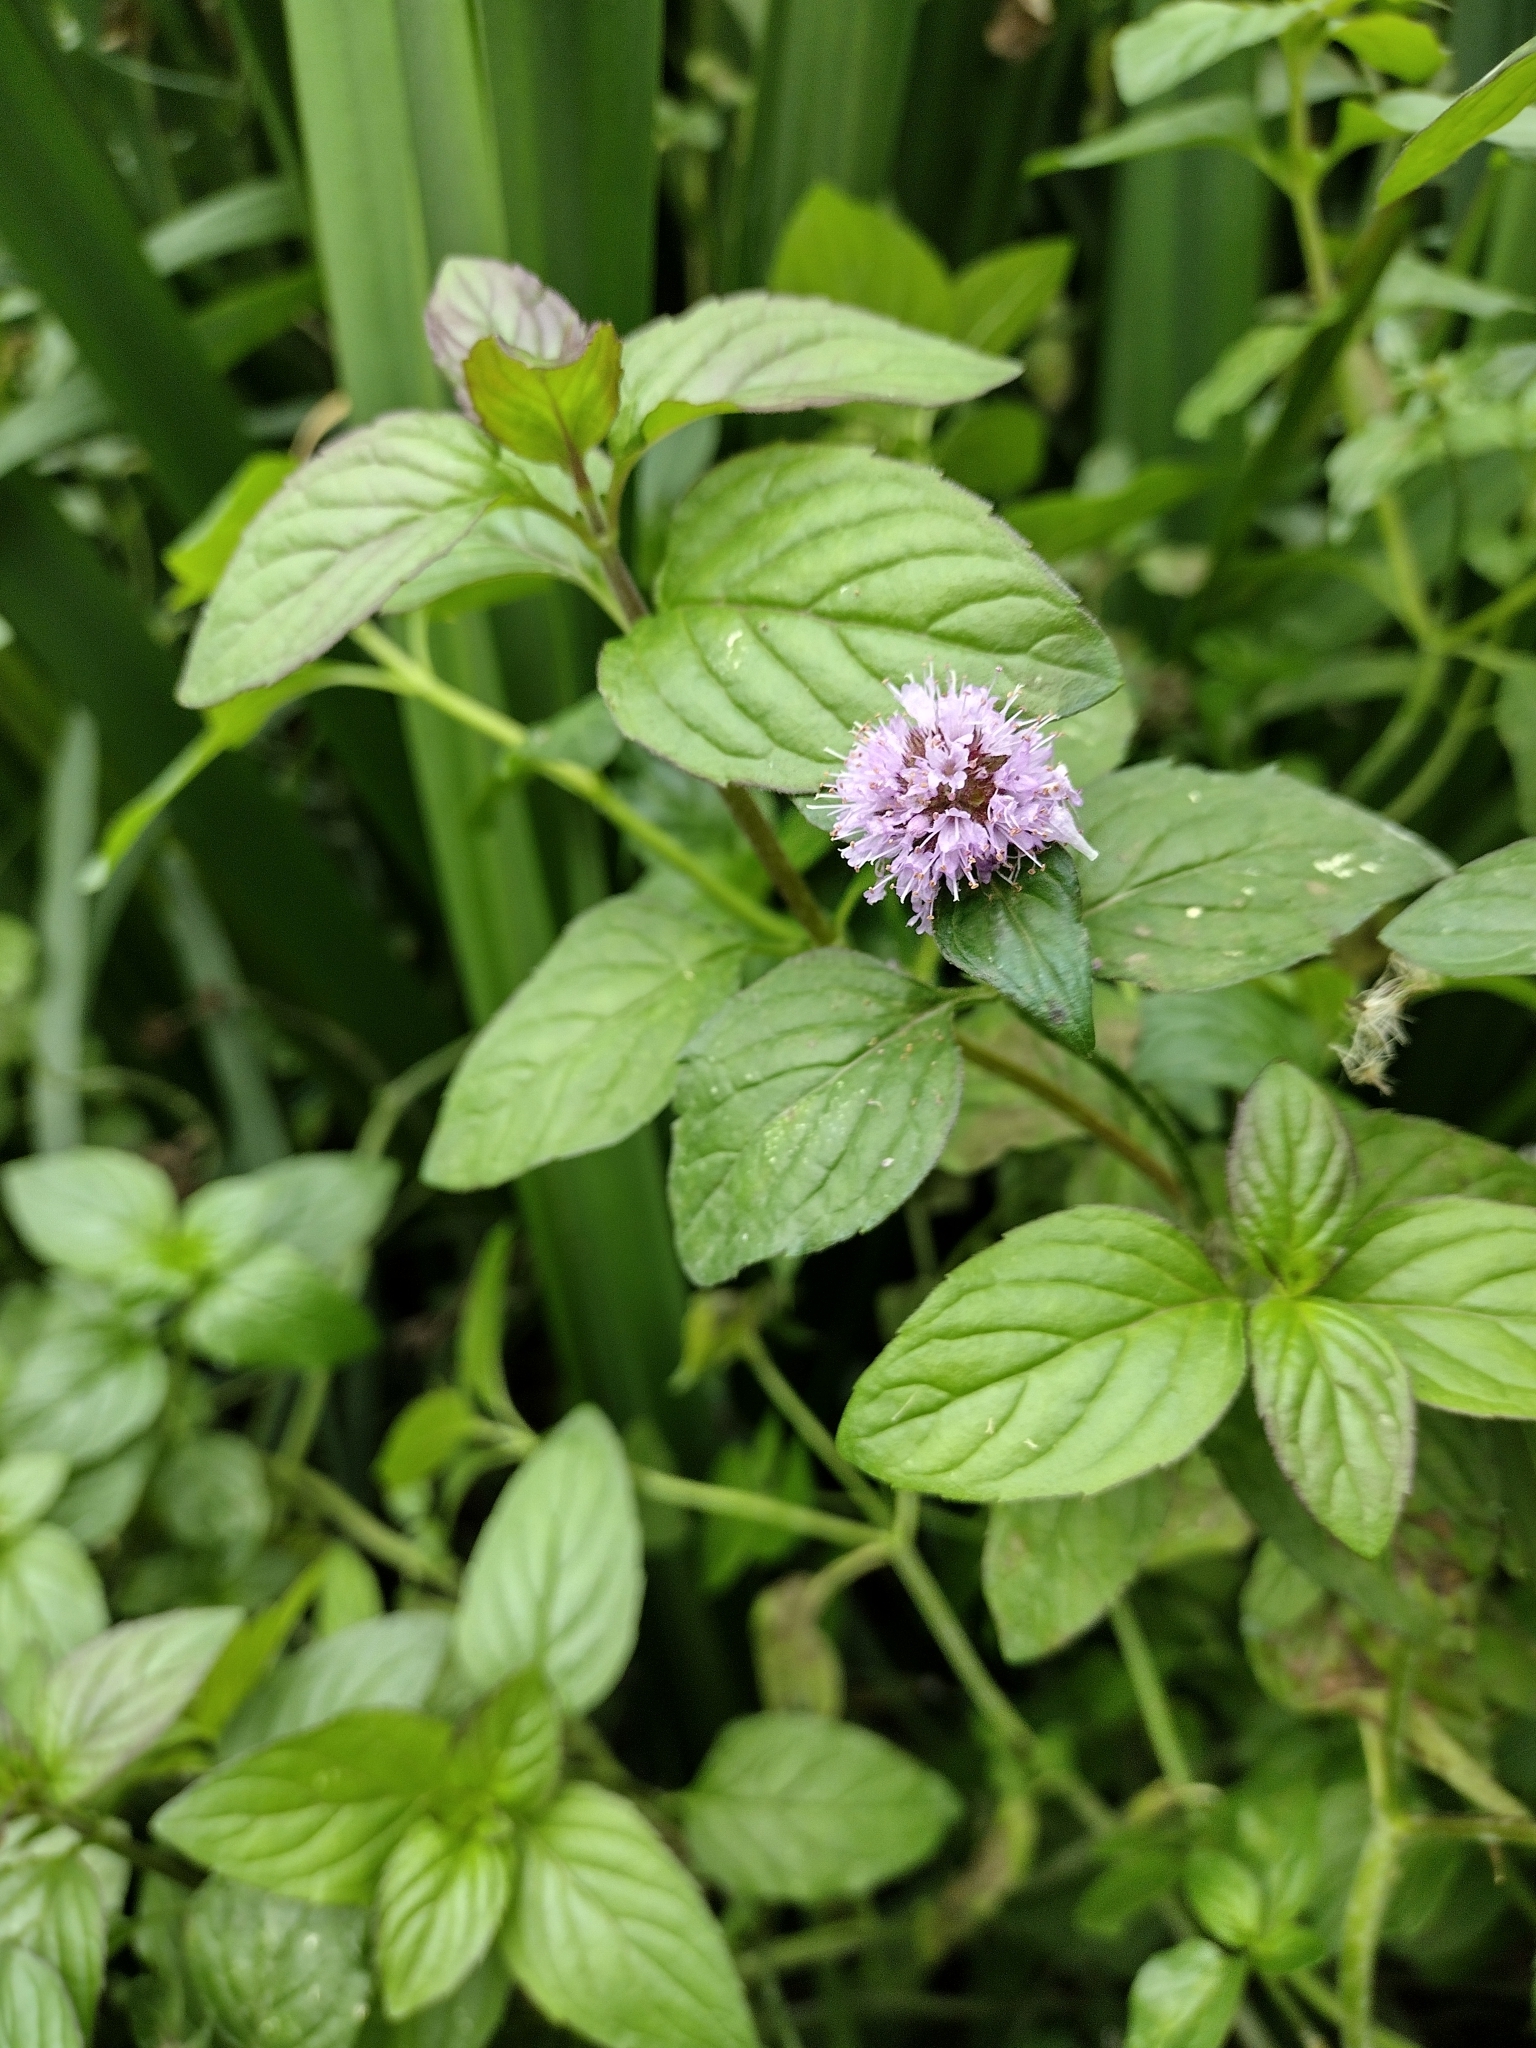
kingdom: Plantae
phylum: Tracheophyta
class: Magnoliopsida
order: Lamiales
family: Lamiaceae
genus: Mentha
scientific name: Mentha aquatica
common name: Water mint
